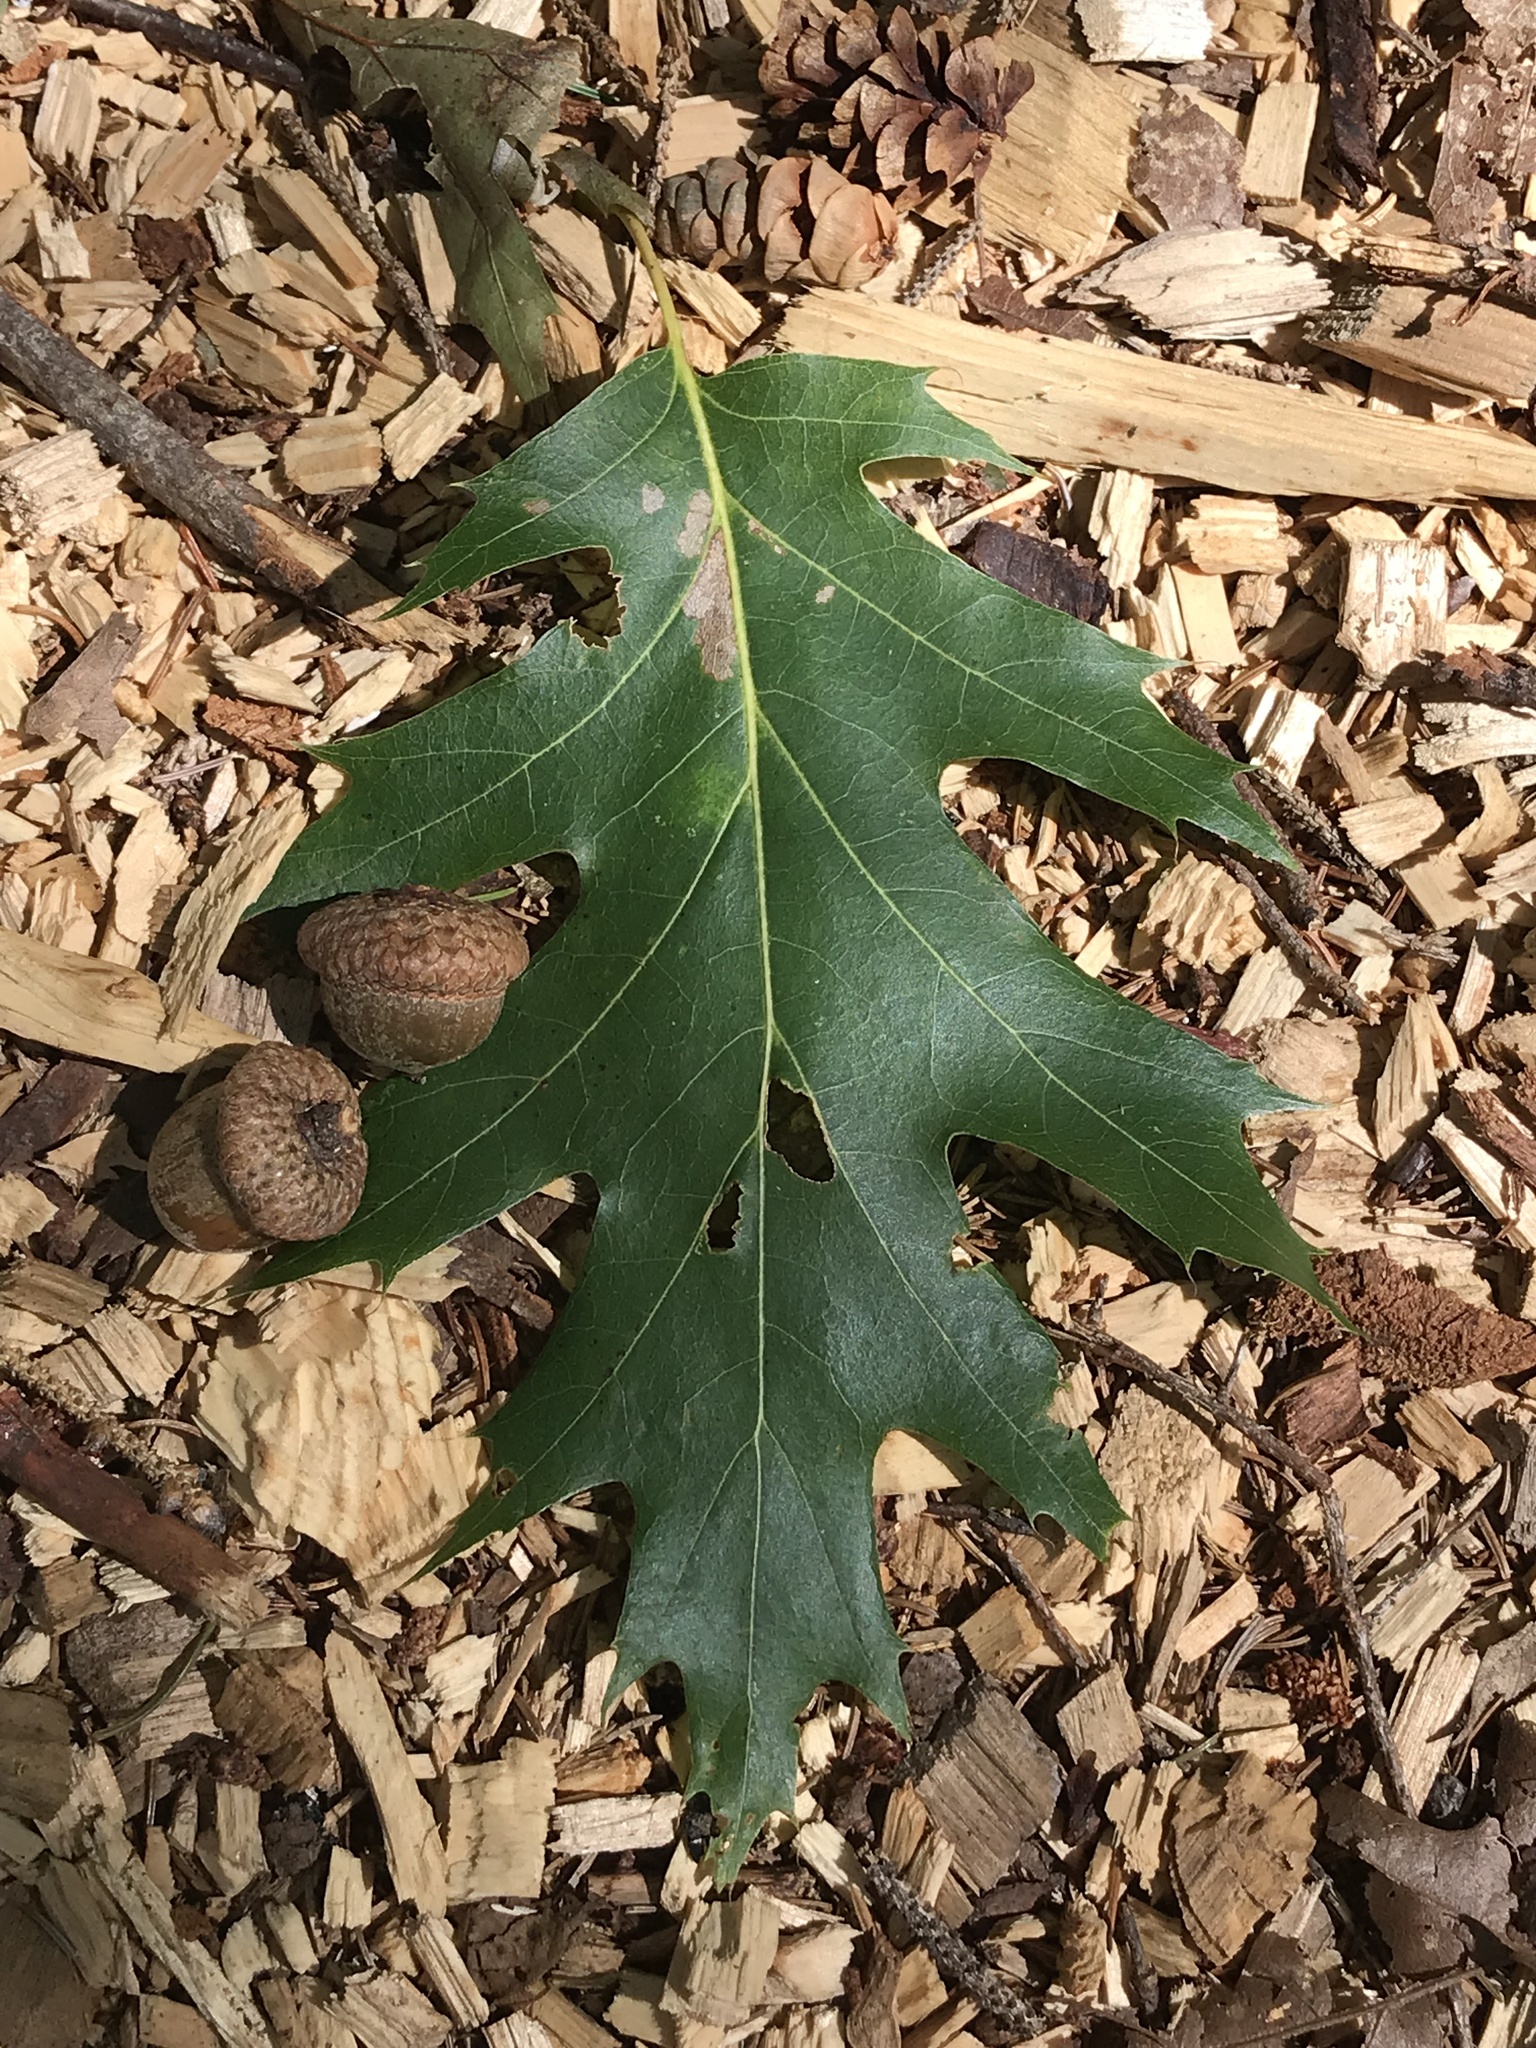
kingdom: Plantae
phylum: Tracheophyta
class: Magnoliopsida
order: Fagales
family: Fagaceae
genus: Quercus
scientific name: Quercus rubra
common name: Red oak
